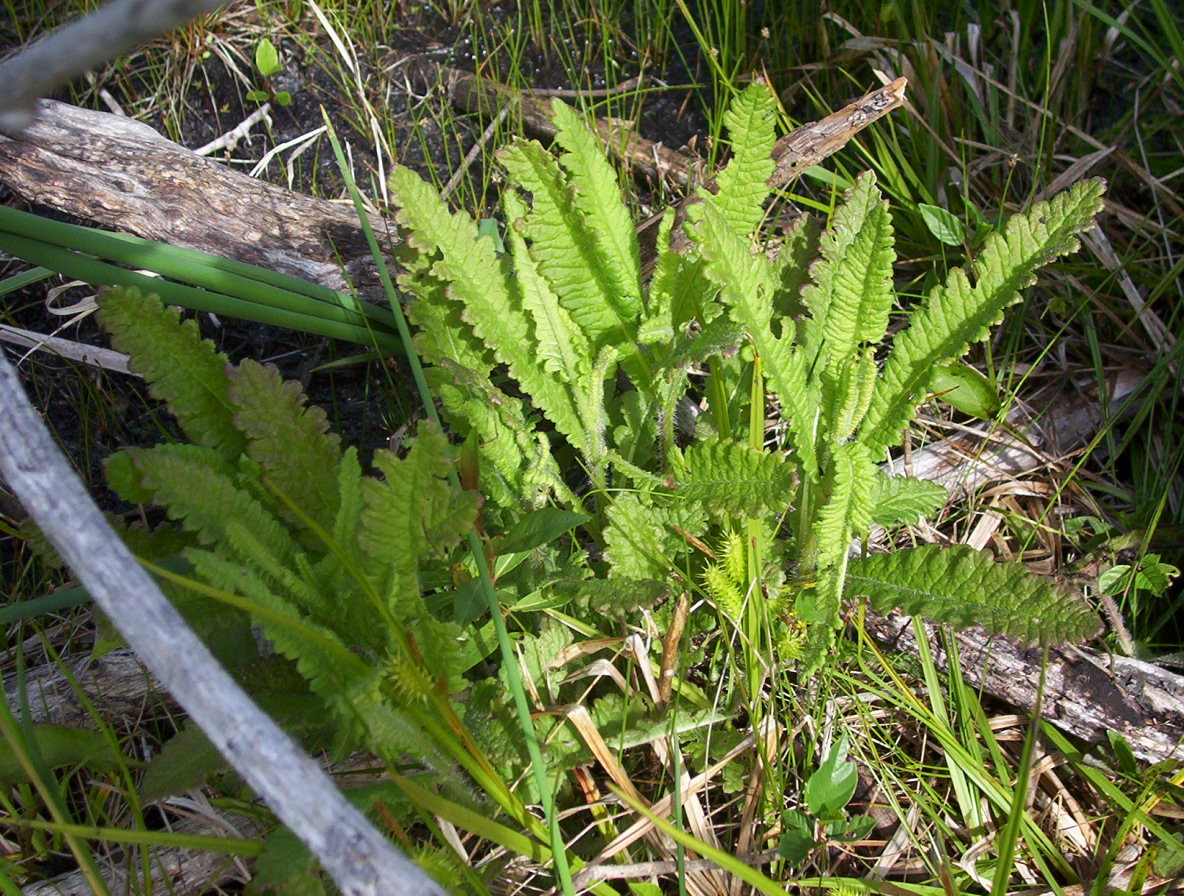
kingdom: Plantae
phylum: Tracheophyta
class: Magnoliopsida
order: Lamiales
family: Orobanchaceae
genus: Pedicularis
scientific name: Pedicularis lanceolata
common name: Swamp lousewort
